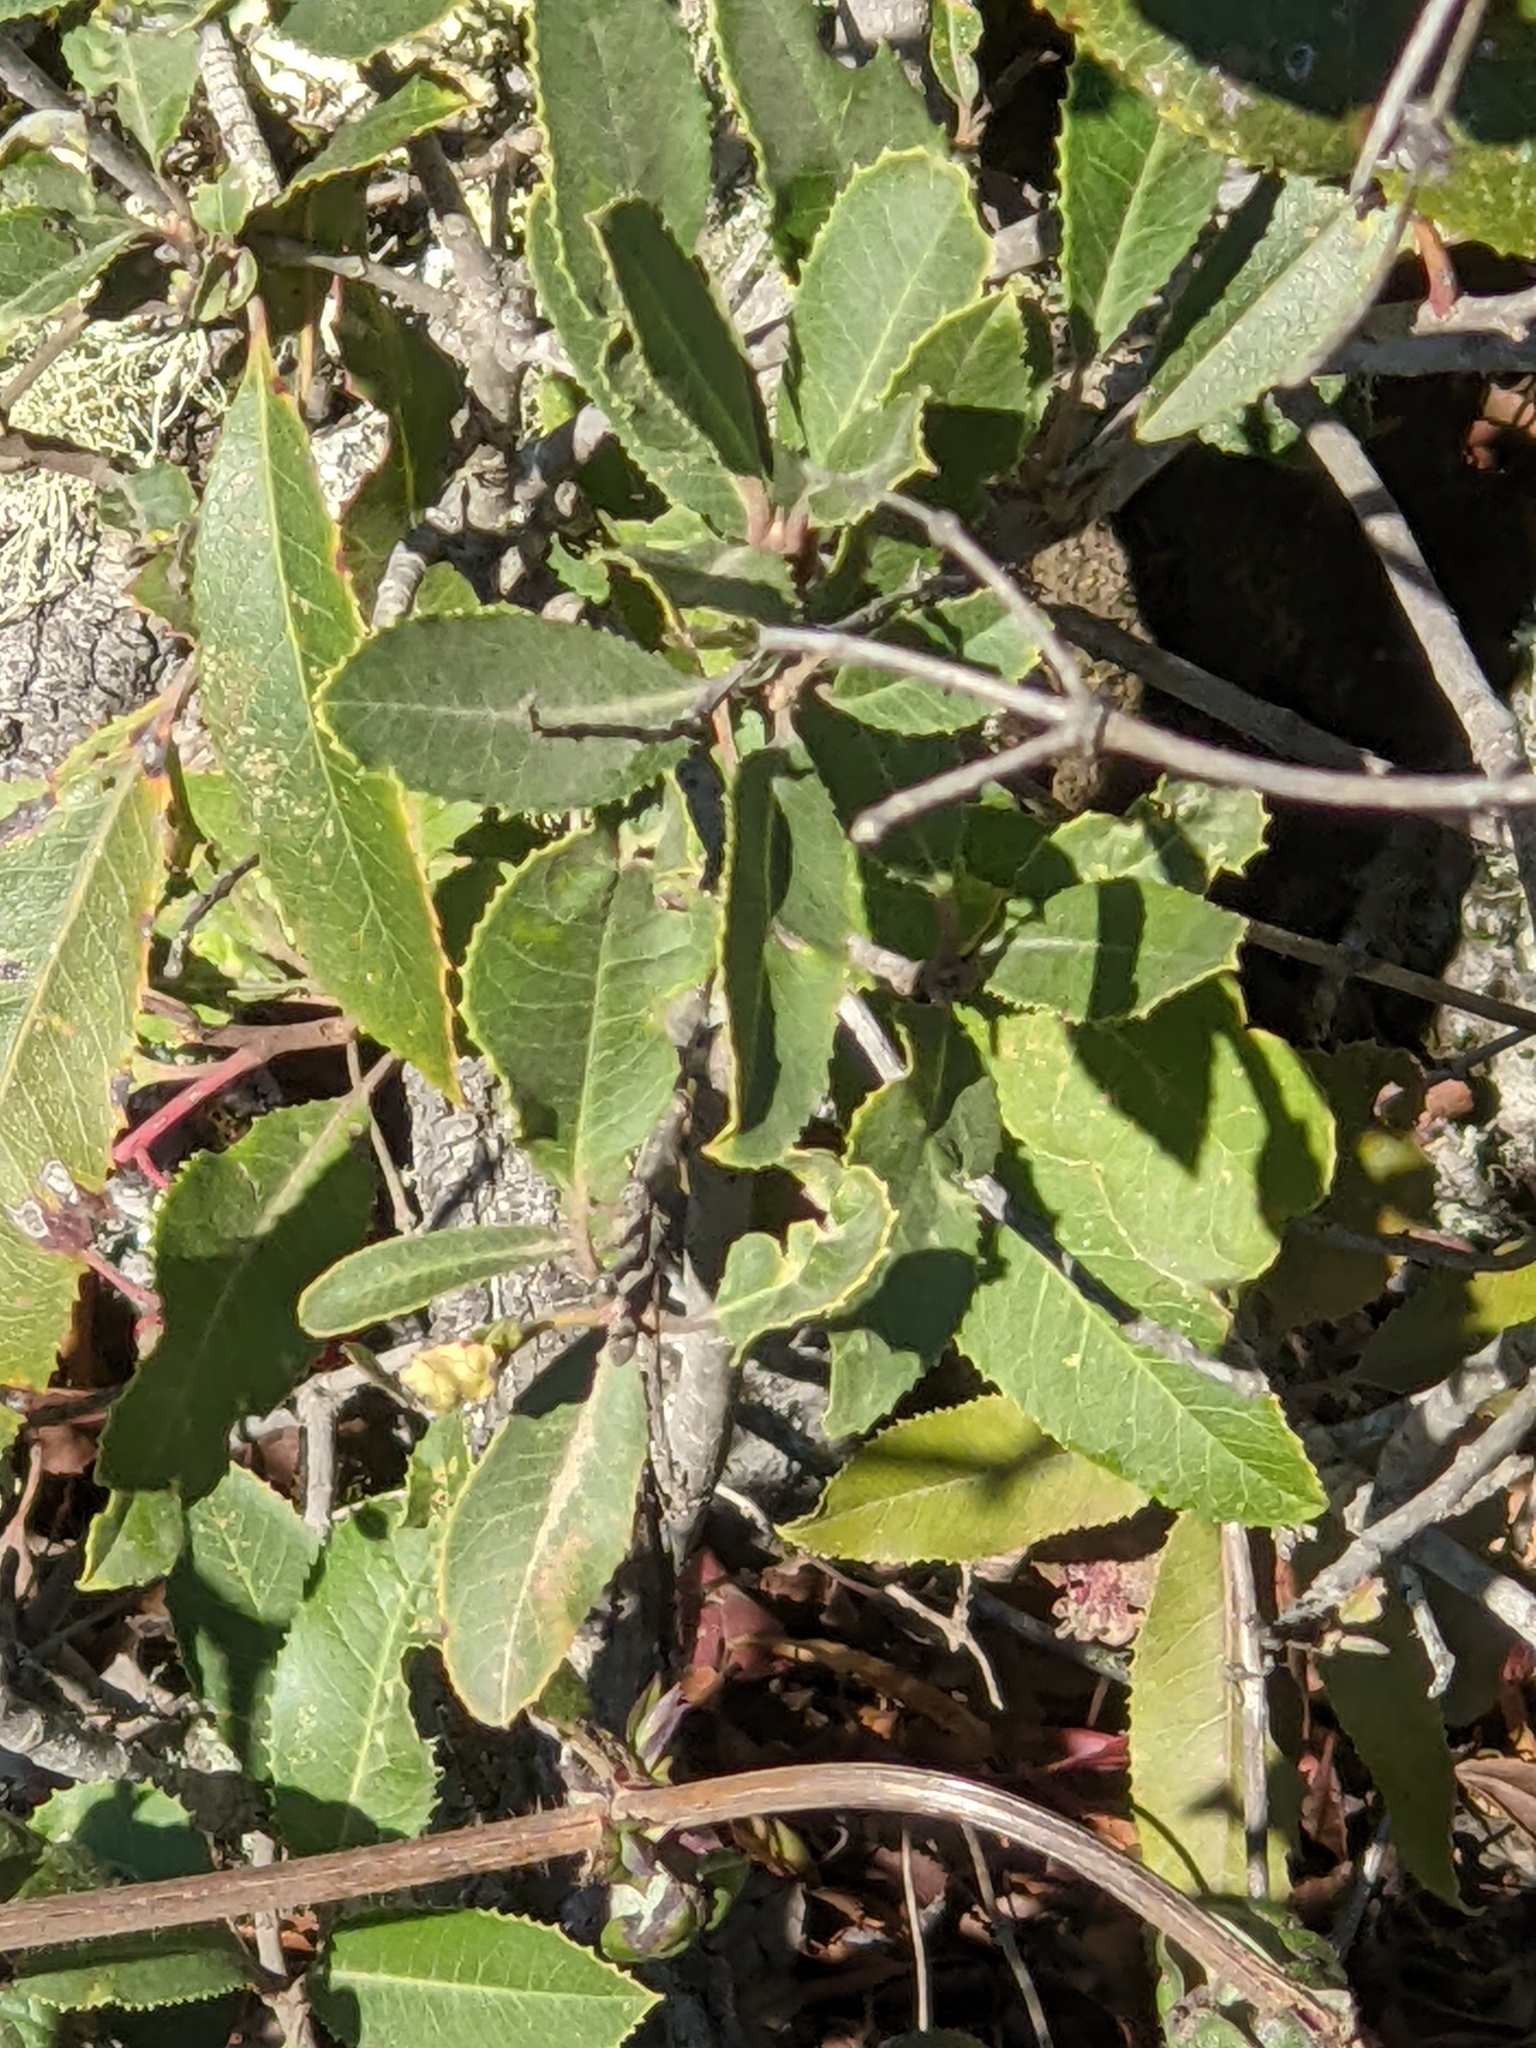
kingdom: Plantae
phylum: Tracheophyta
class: Magnoliopsida
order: Rosales
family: Rosaceae
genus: Heteromeles
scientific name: Heteromeles arbutifolia
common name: California-holly
